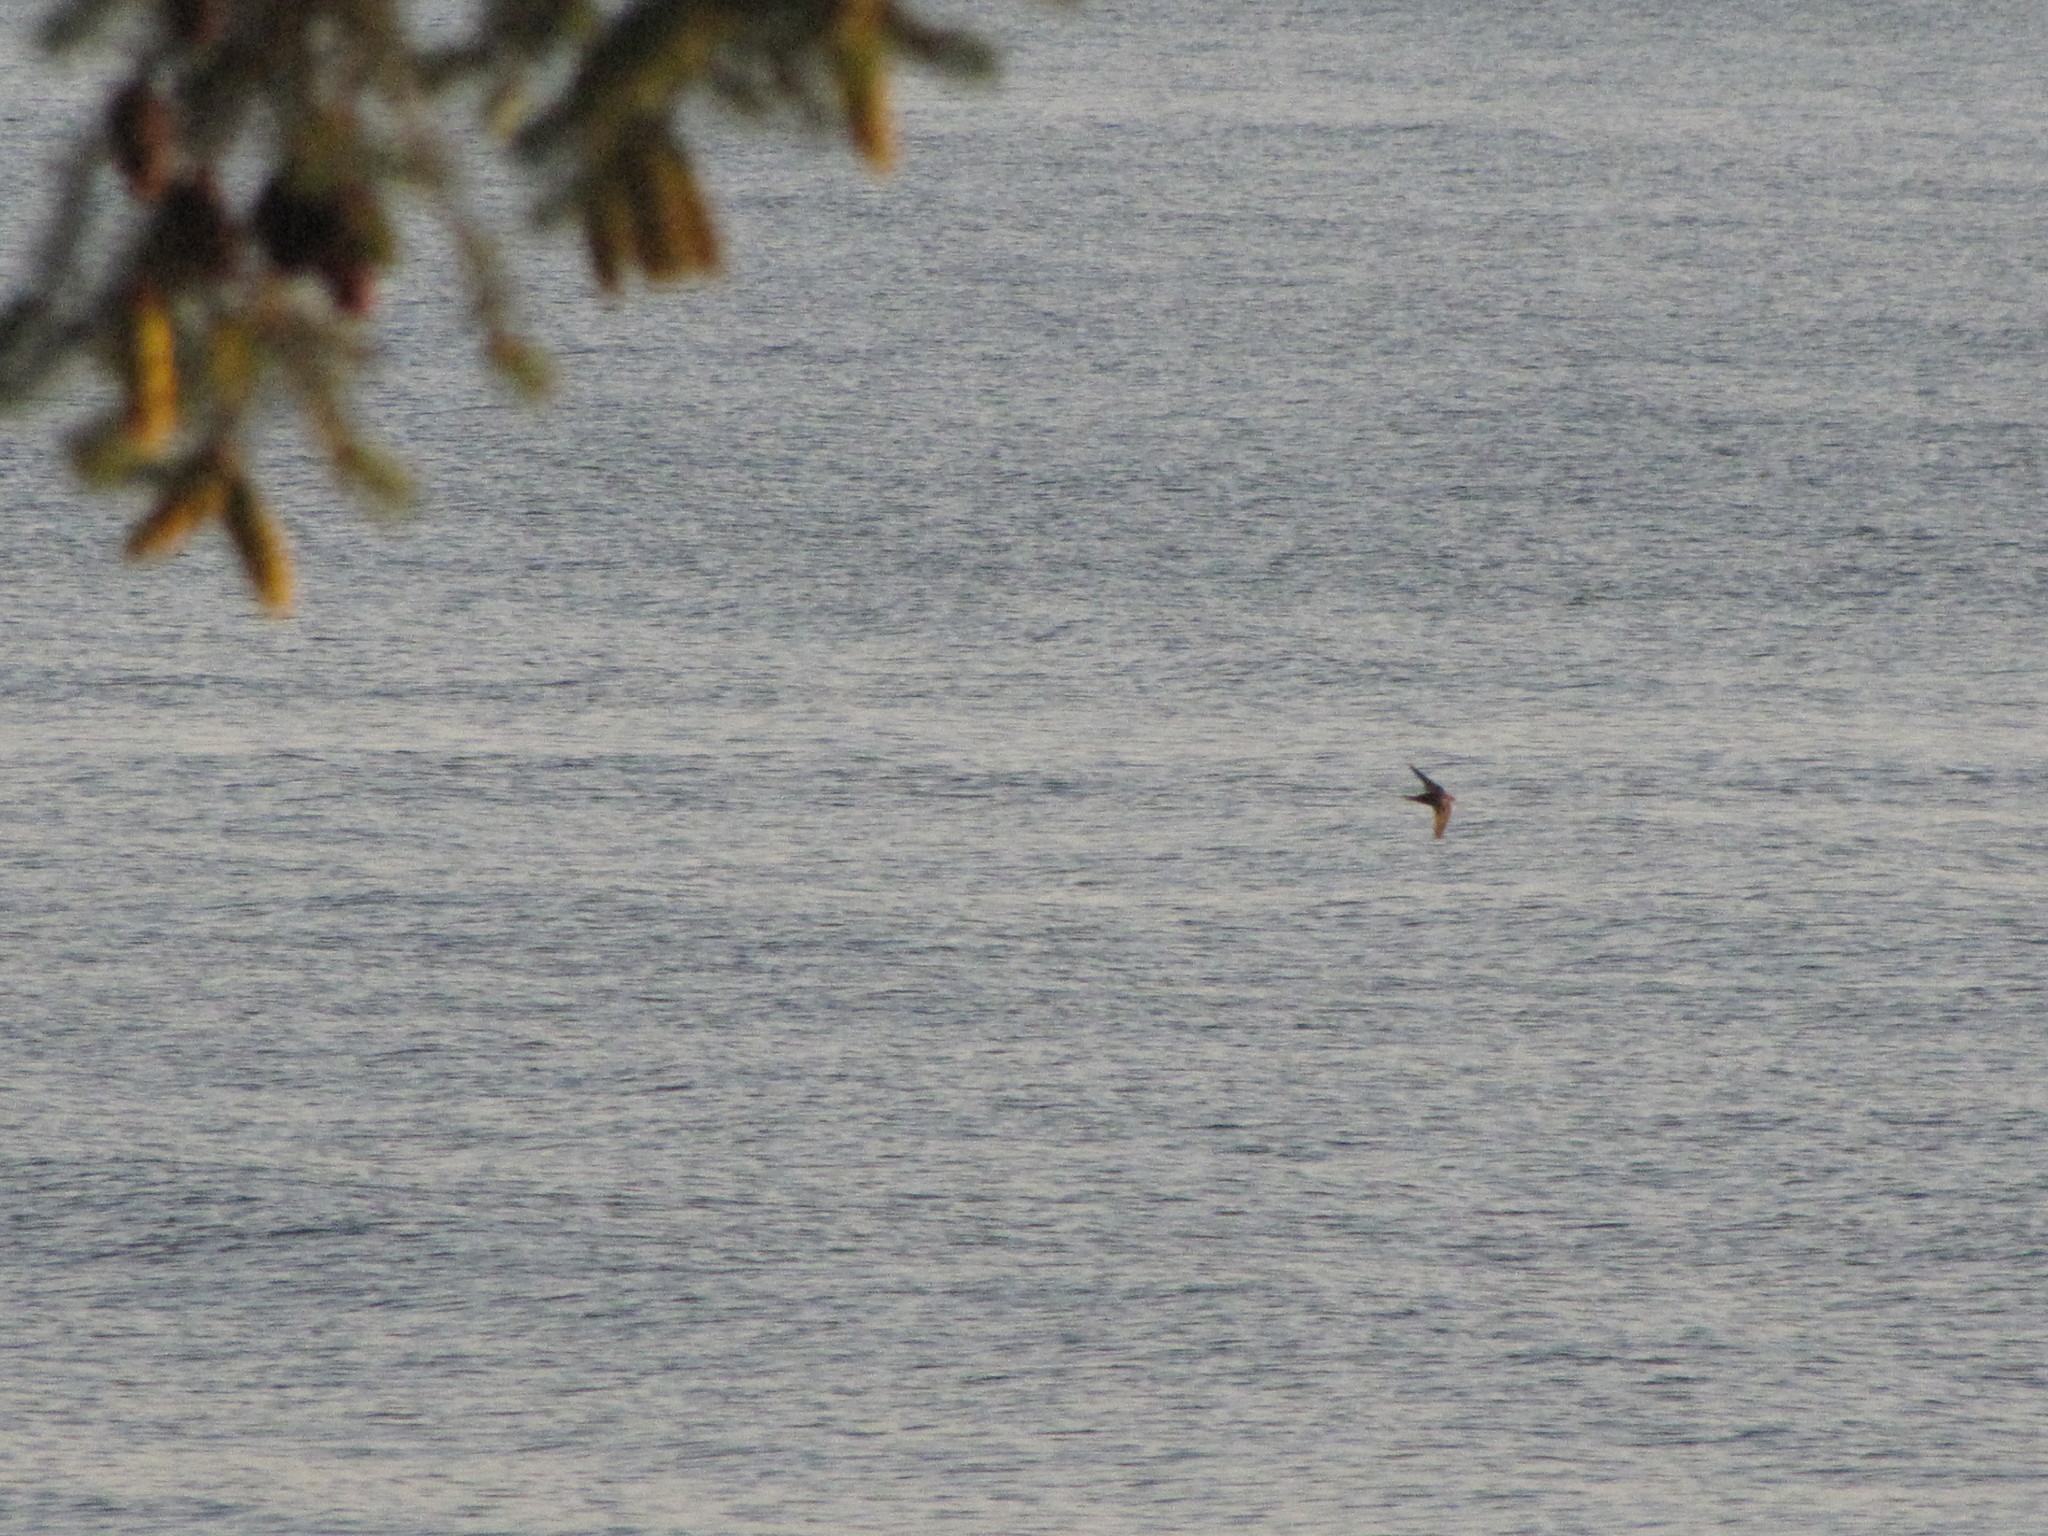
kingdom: Animalia
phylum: Chordata
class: Aves
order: Passeriformes
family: Hirundinidae
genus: Hirundo
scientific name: Hirundo rustica
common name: Barn swallow
